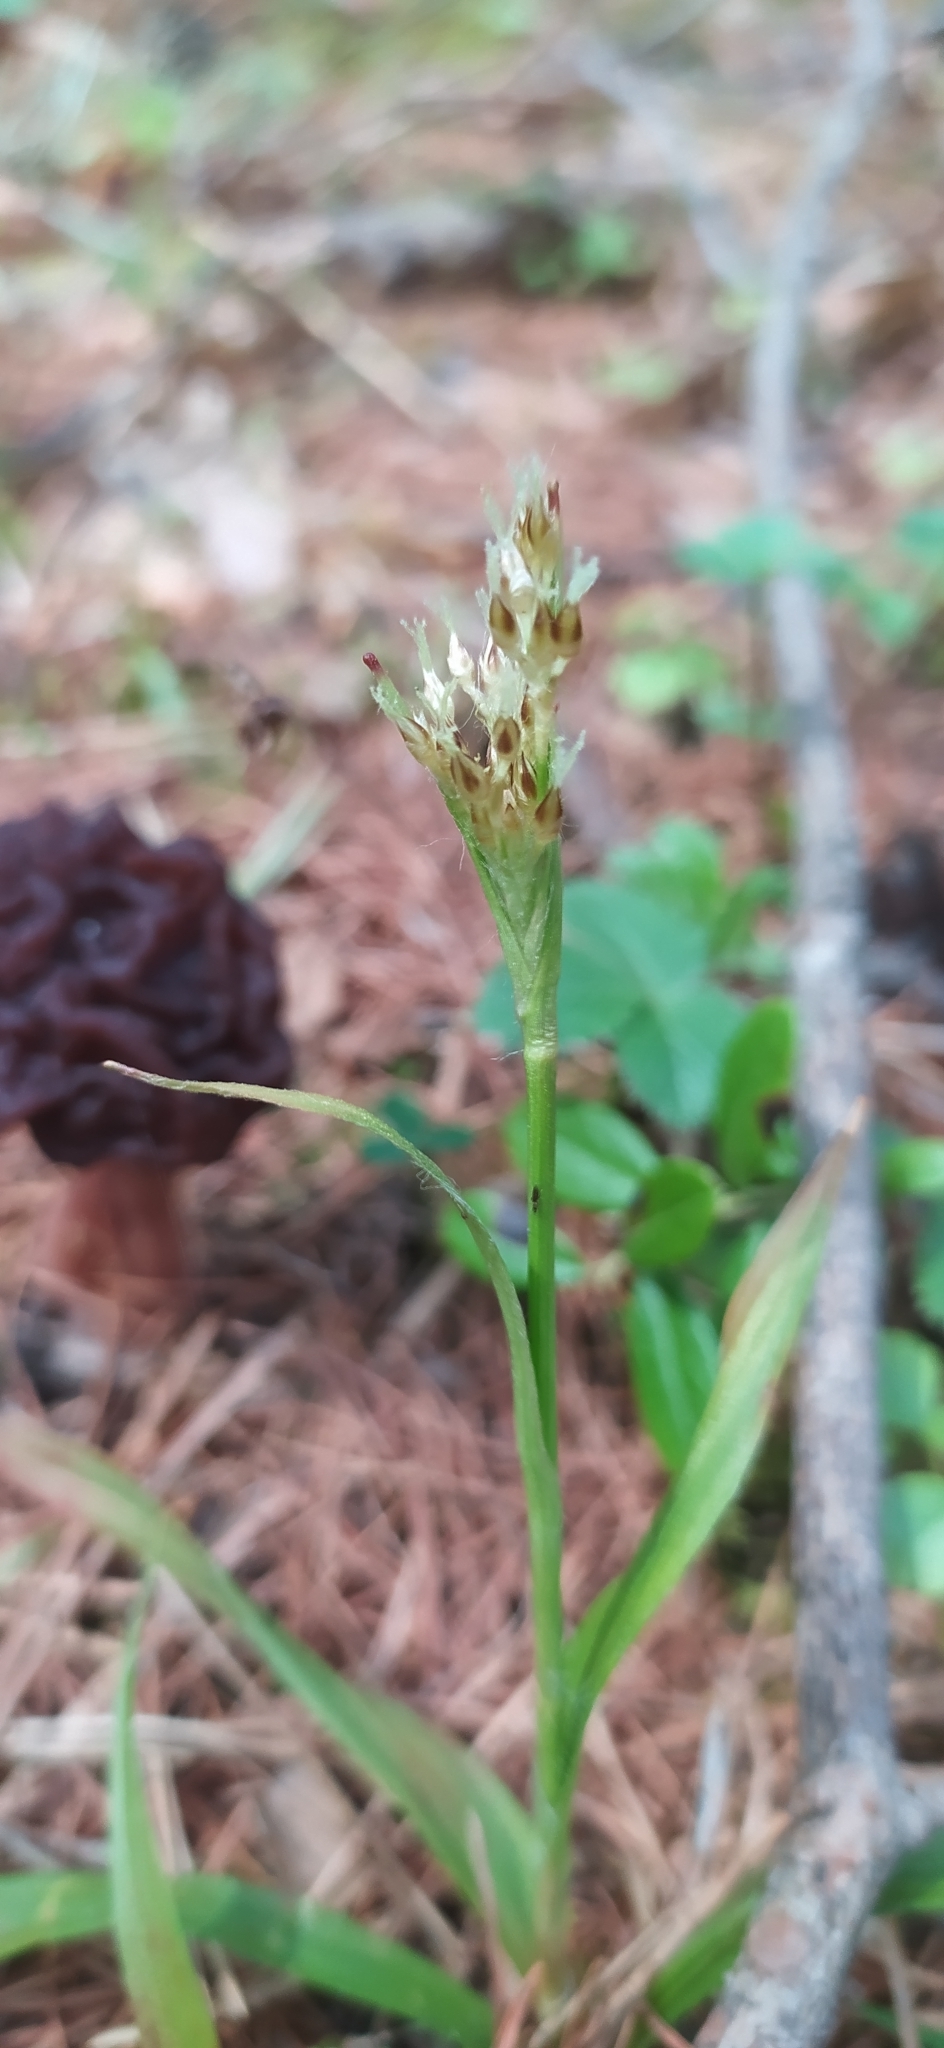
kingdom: Plantae
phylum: Tracheophyta
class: Liliopsida
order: Poales
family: Juncaceae
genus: Luzula
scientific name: Luzula pilosa
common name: Hairy wood-rush
